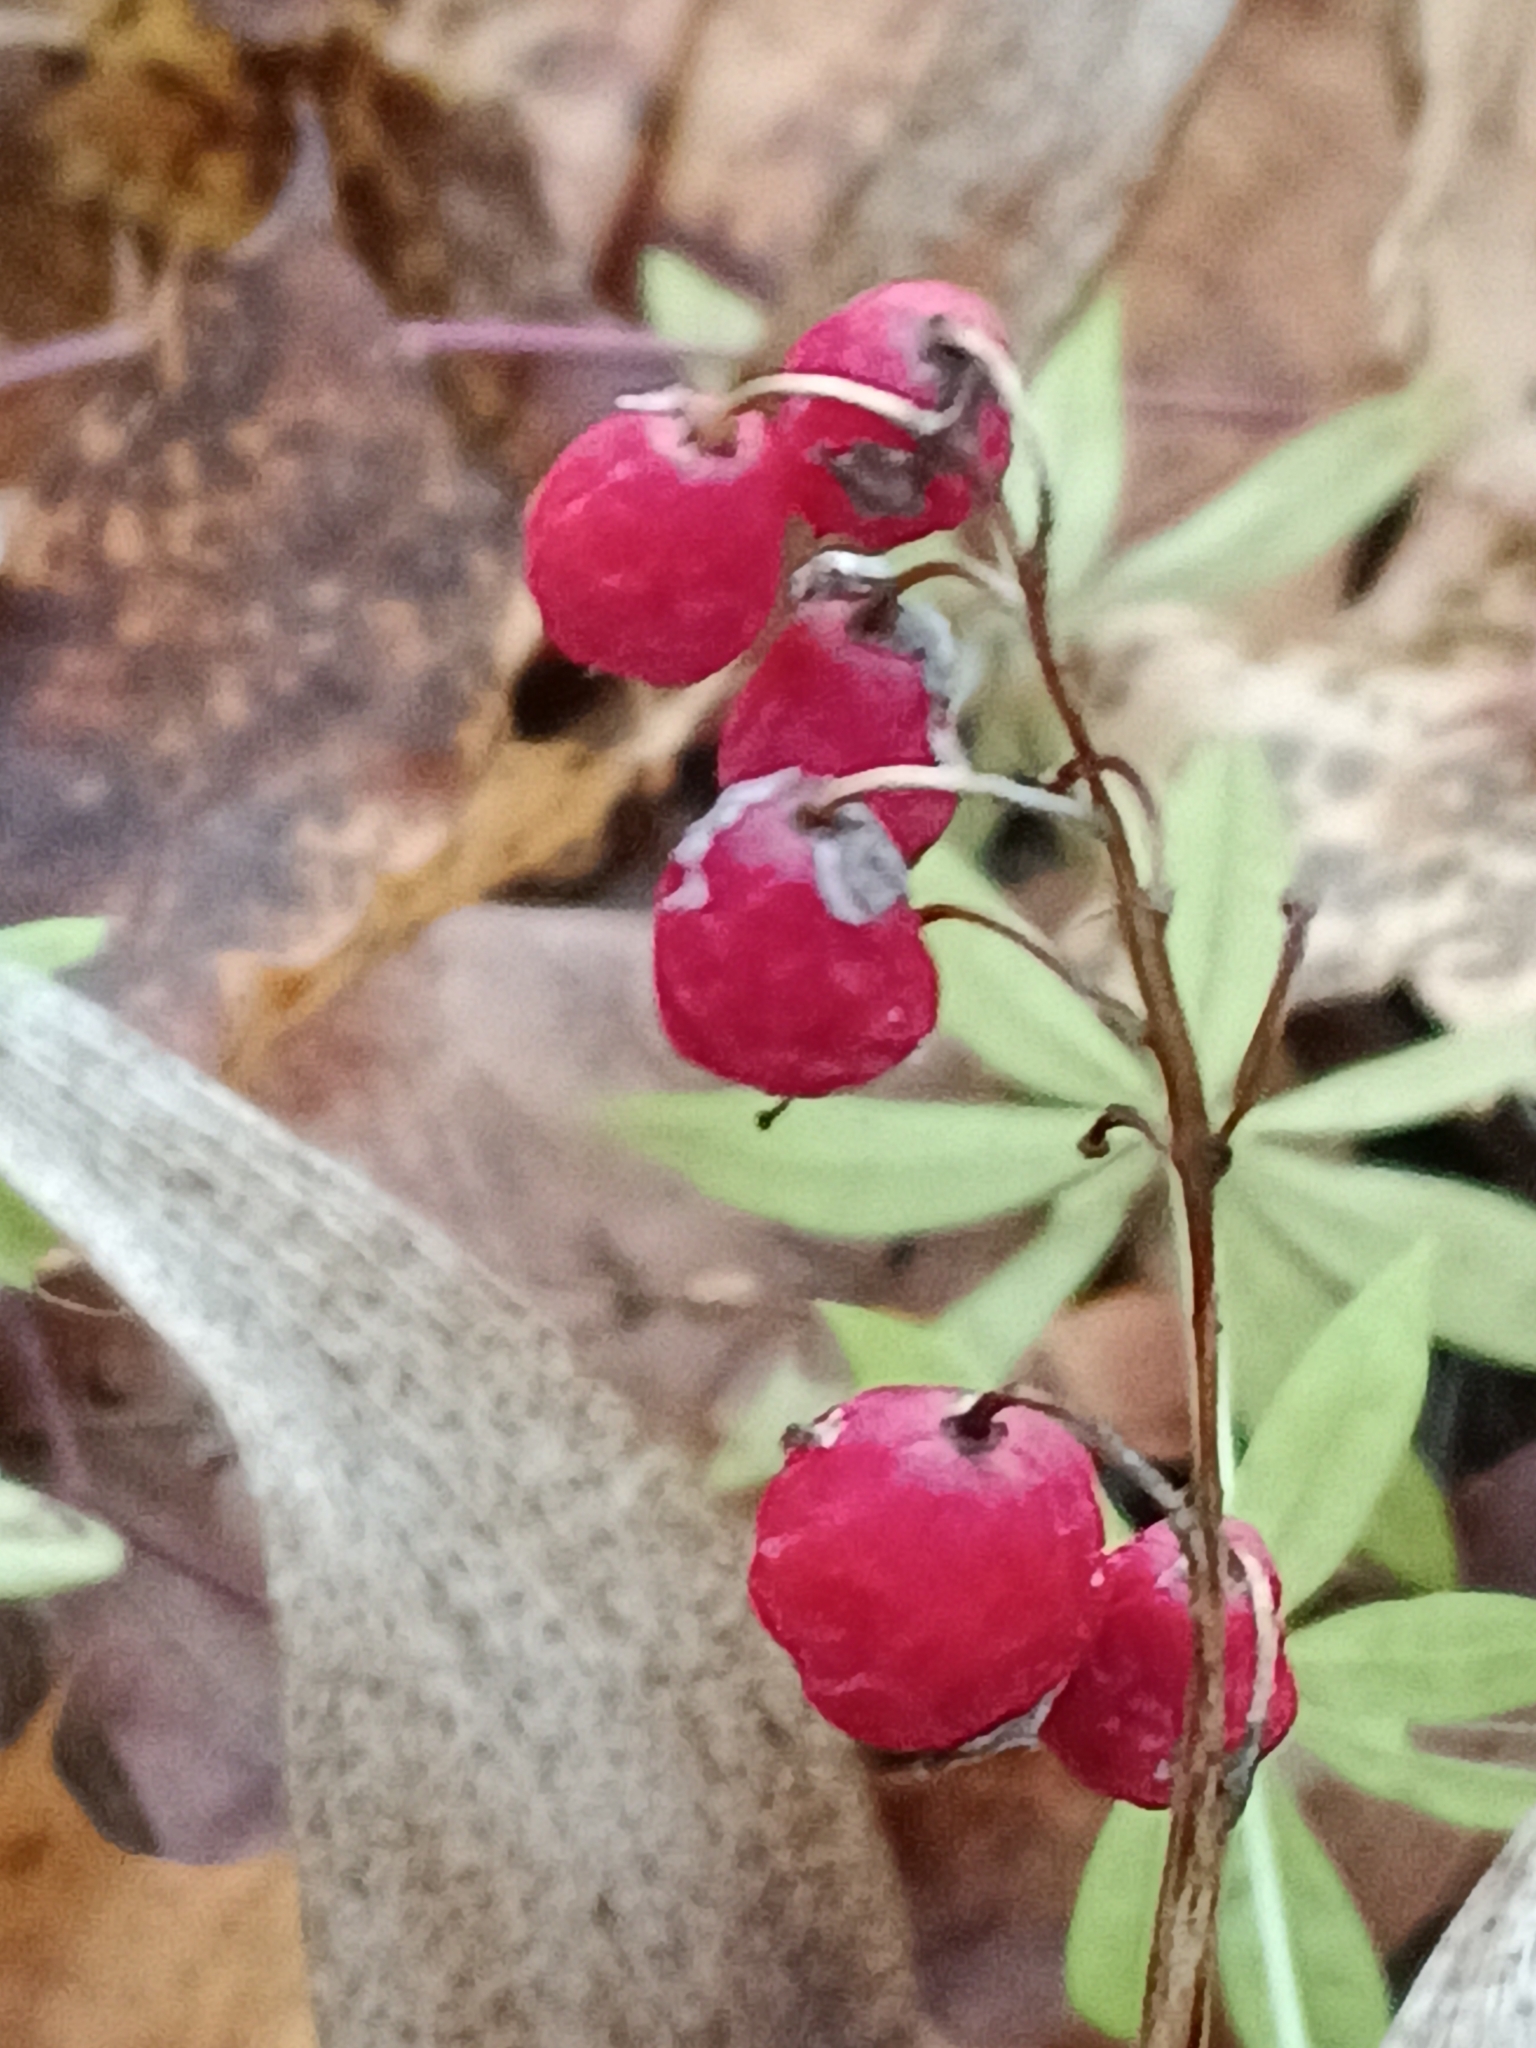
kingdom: Plantae
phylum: Tracheophyta
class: Liliopsida
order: Asparagales
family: Asparagaceae
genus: Convallaria
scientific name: Convallaria majalis
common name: Lily-of-the-valley
